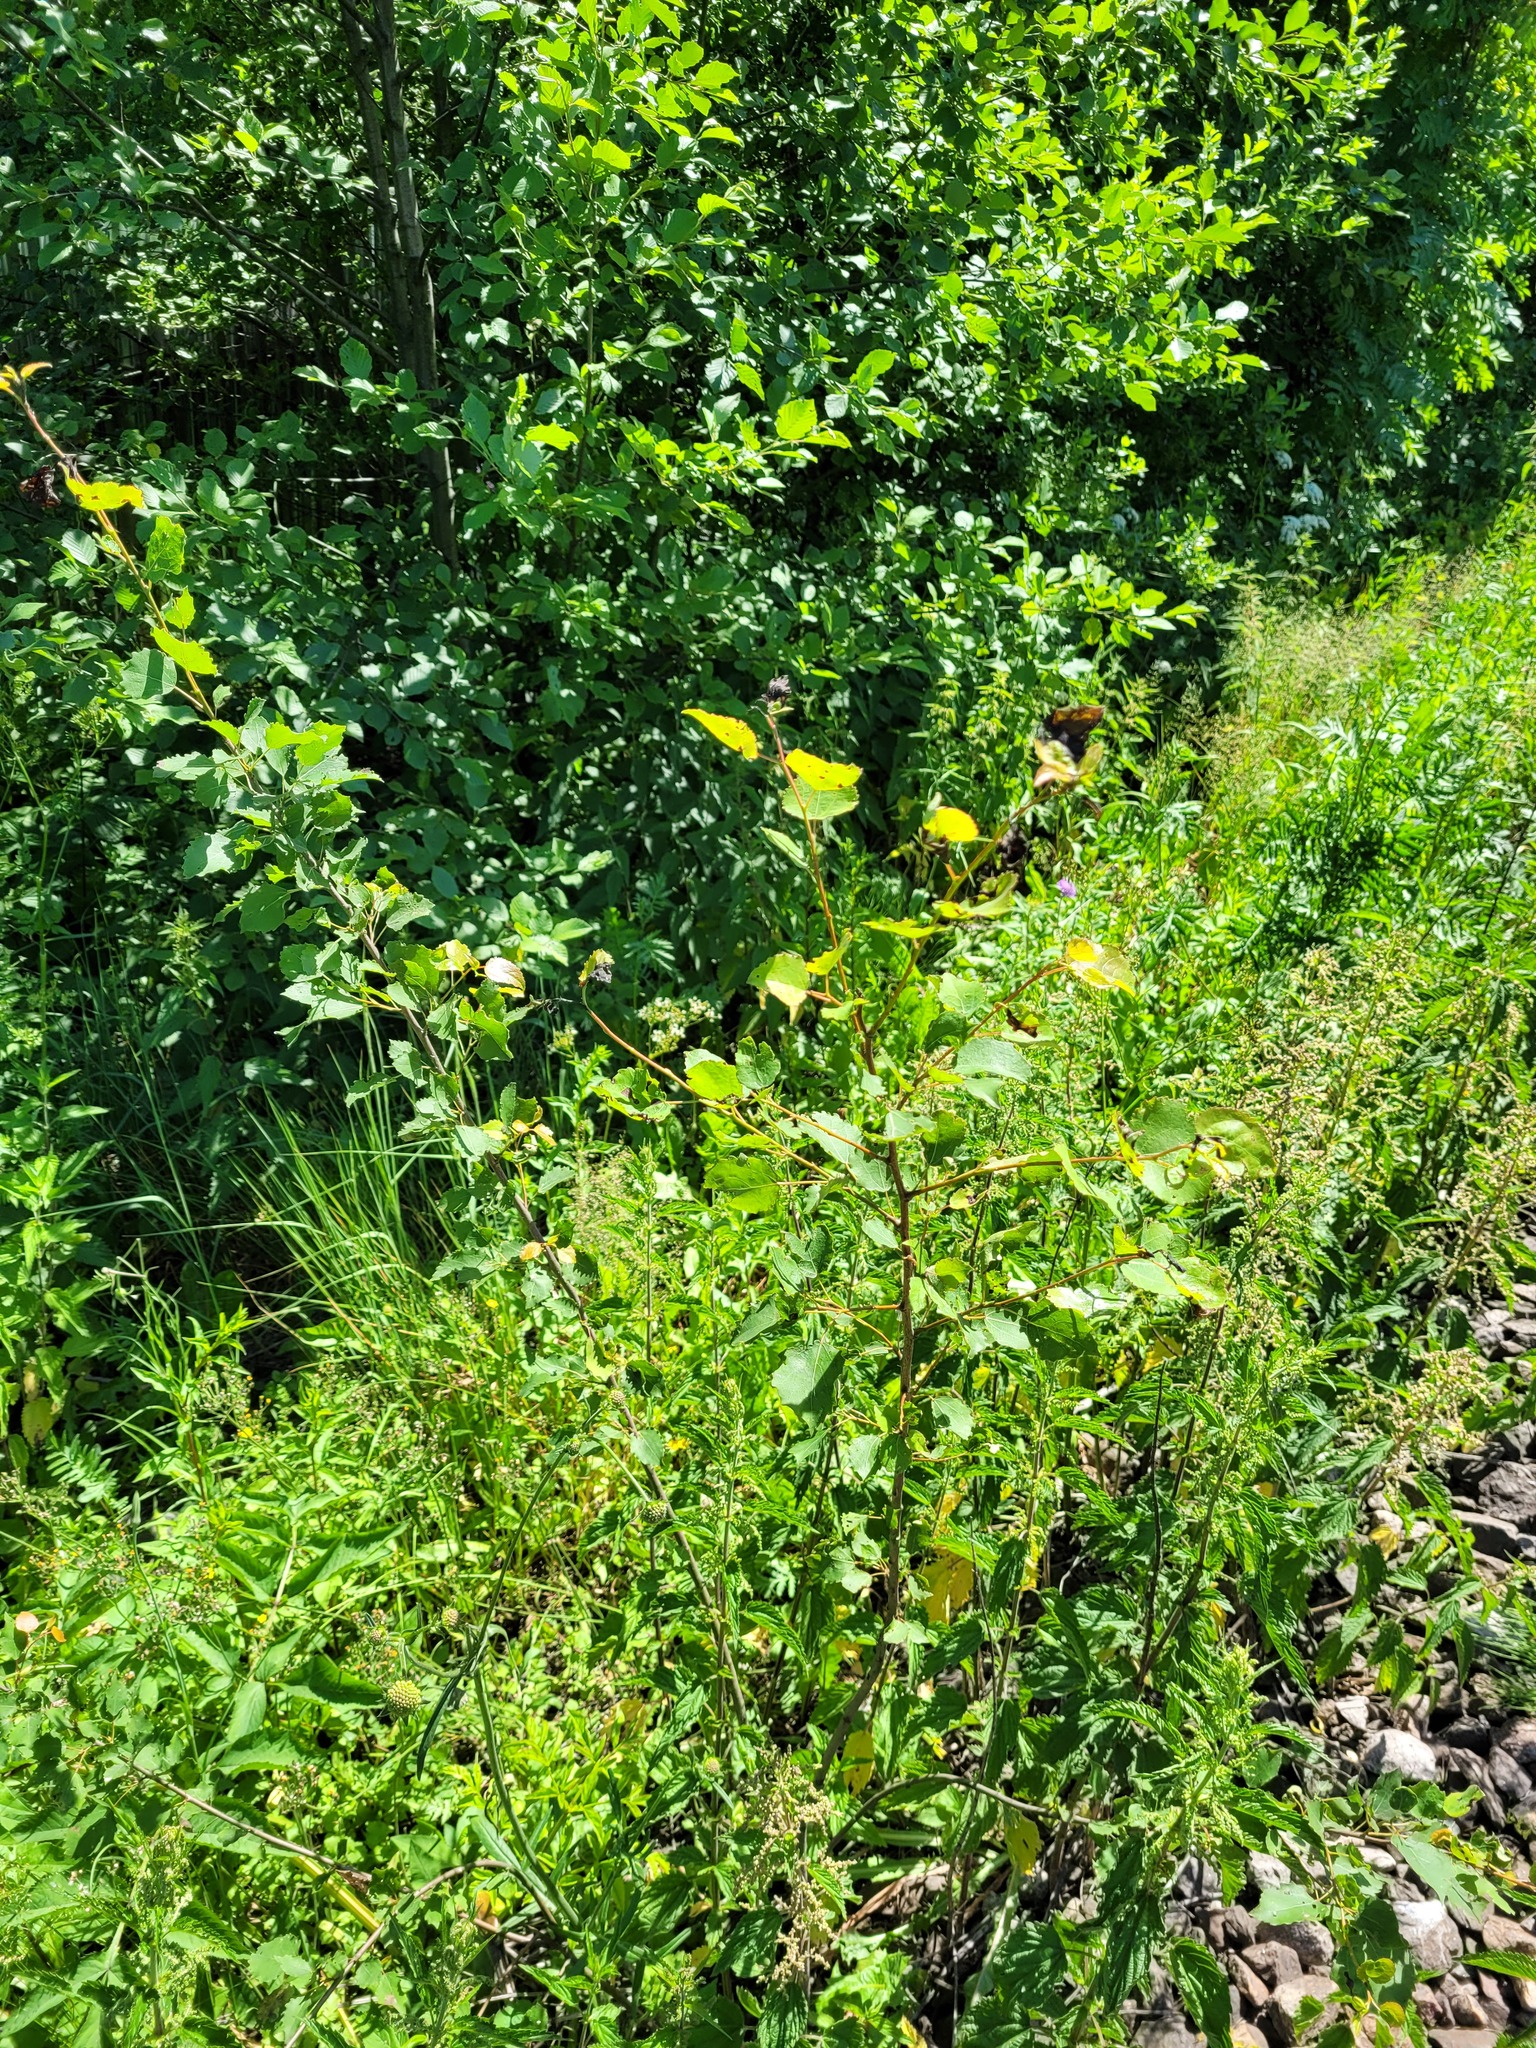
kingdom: Plantae
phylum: Tracheophyta
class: Magnoliopsida
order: Malpighiales
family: Salicaceae
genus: Populus
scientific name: Populus tremula
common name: European aspen
